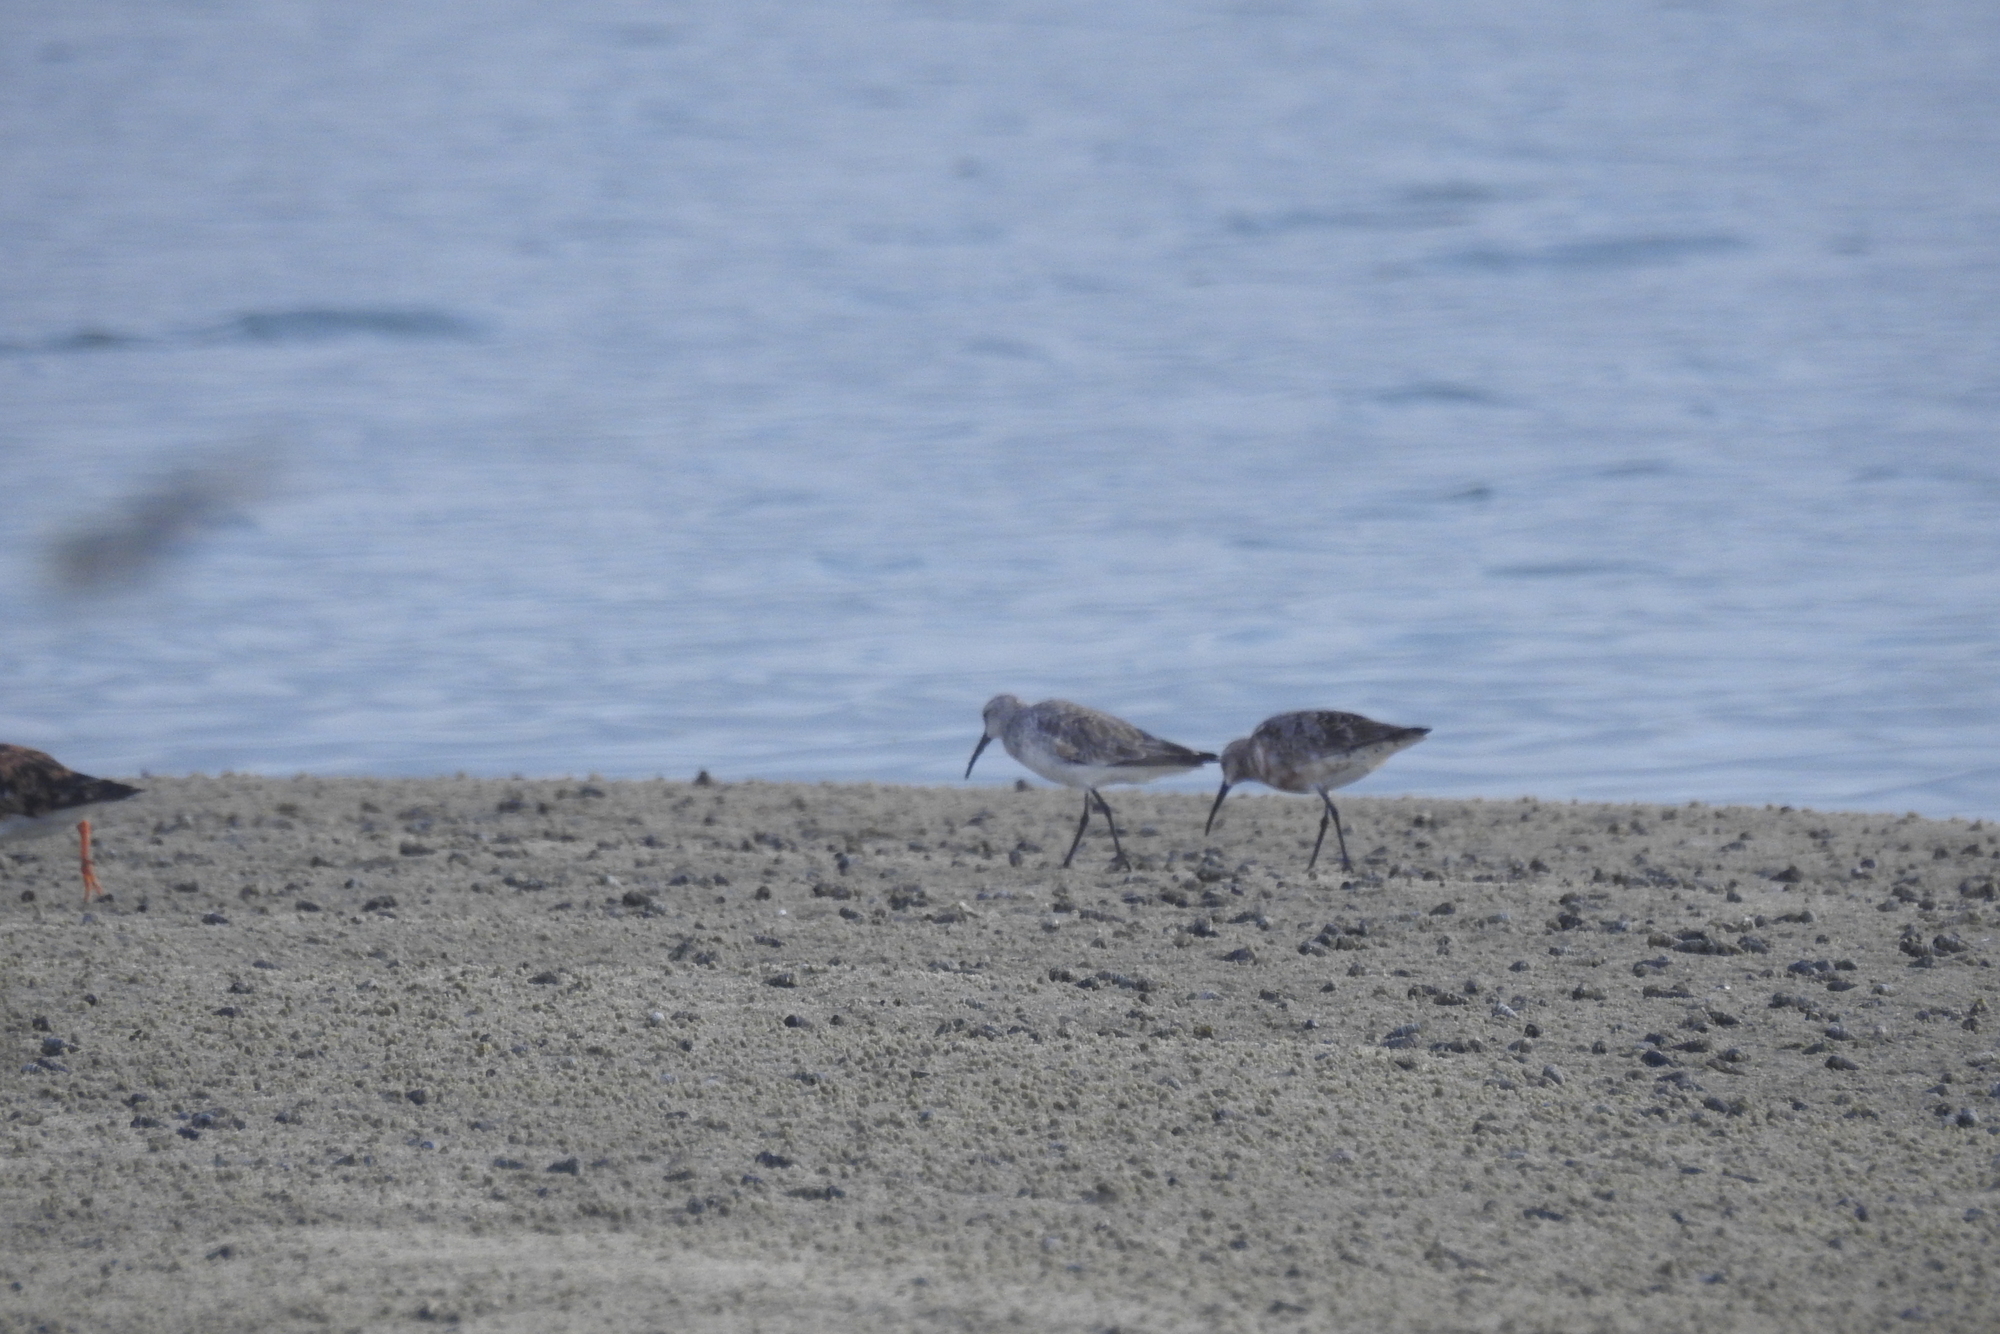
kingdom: Animalia
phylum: Chordata
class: Aves
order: Charadriiformes
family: Scolopacidae
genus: Calidris
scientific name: Calidris ferruginea
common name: Curlew sandpiper
